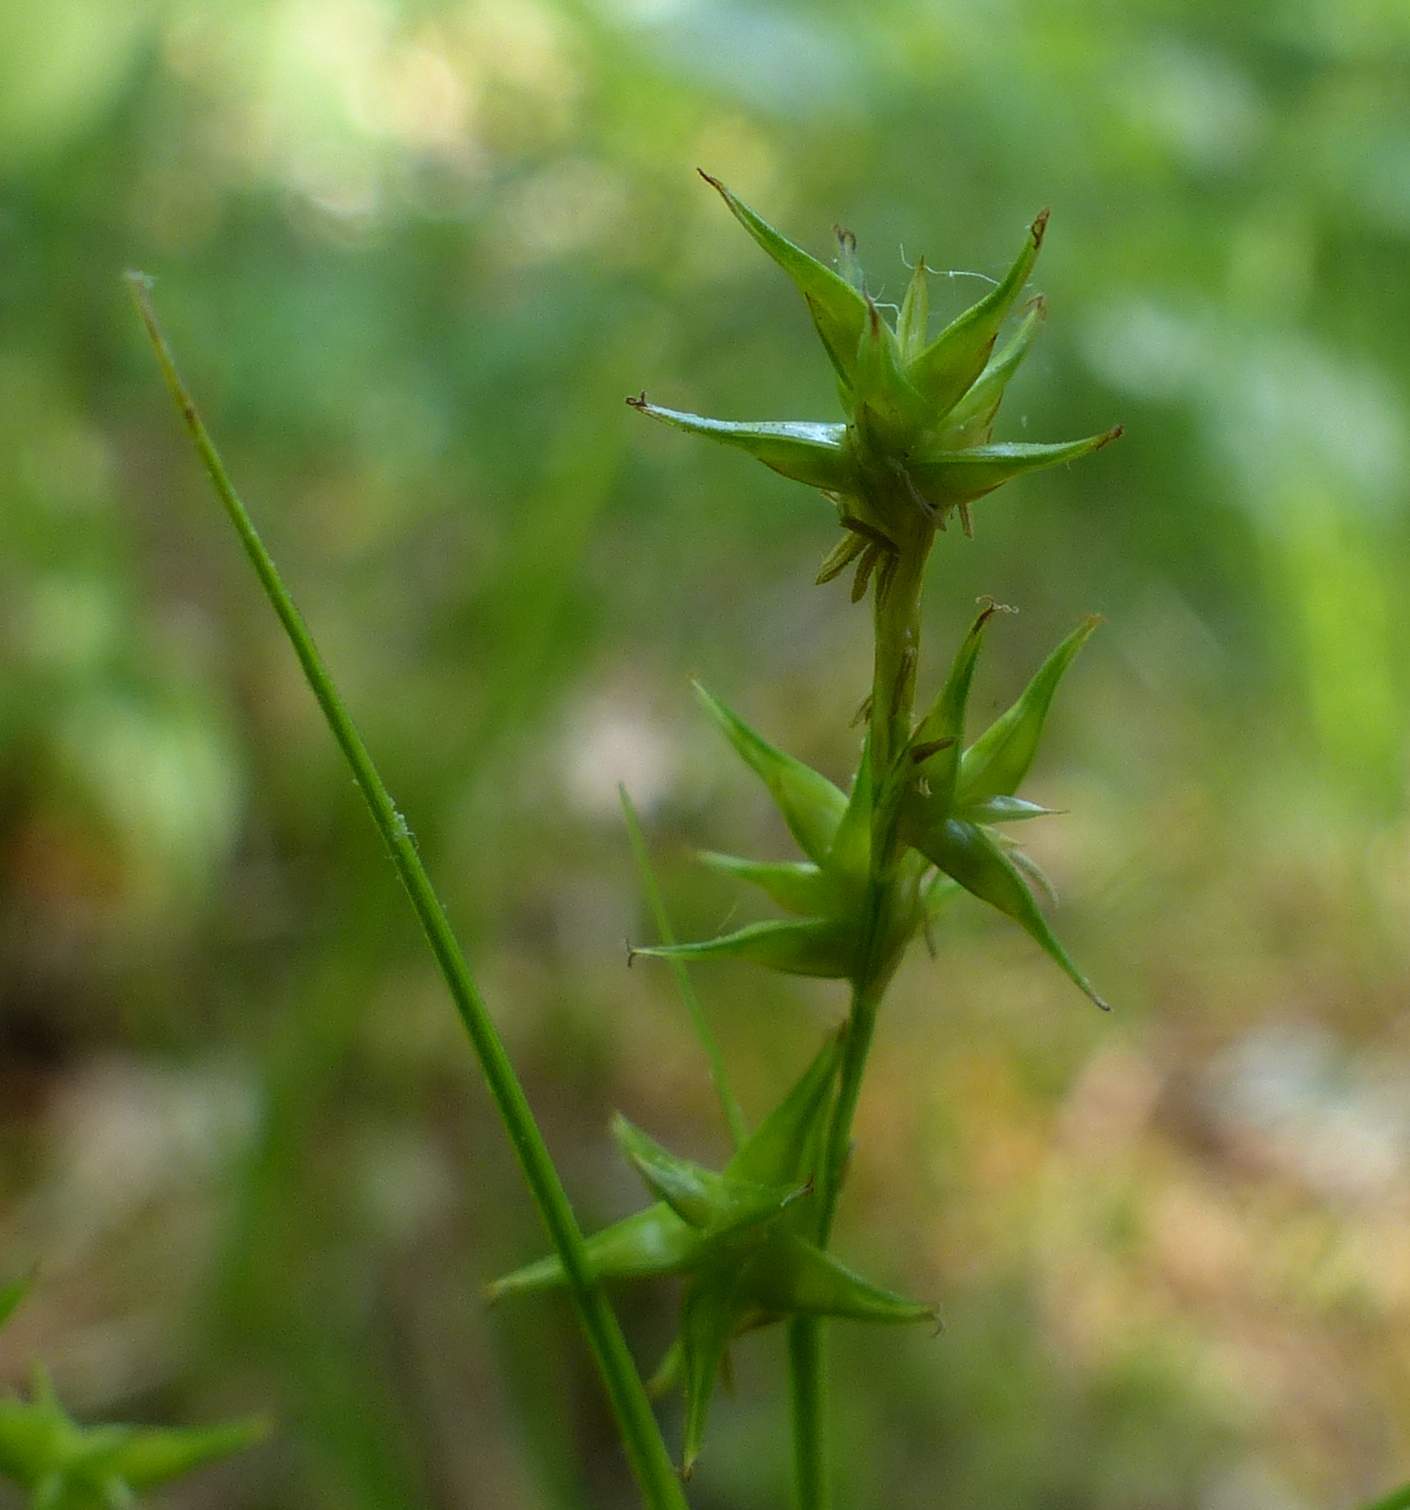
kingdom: Plantae
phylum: Tracheophyta
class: Liliopsida
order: Poales
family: Cyperaceae
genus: Carex
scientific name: Carex echinata
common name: Star sedge
